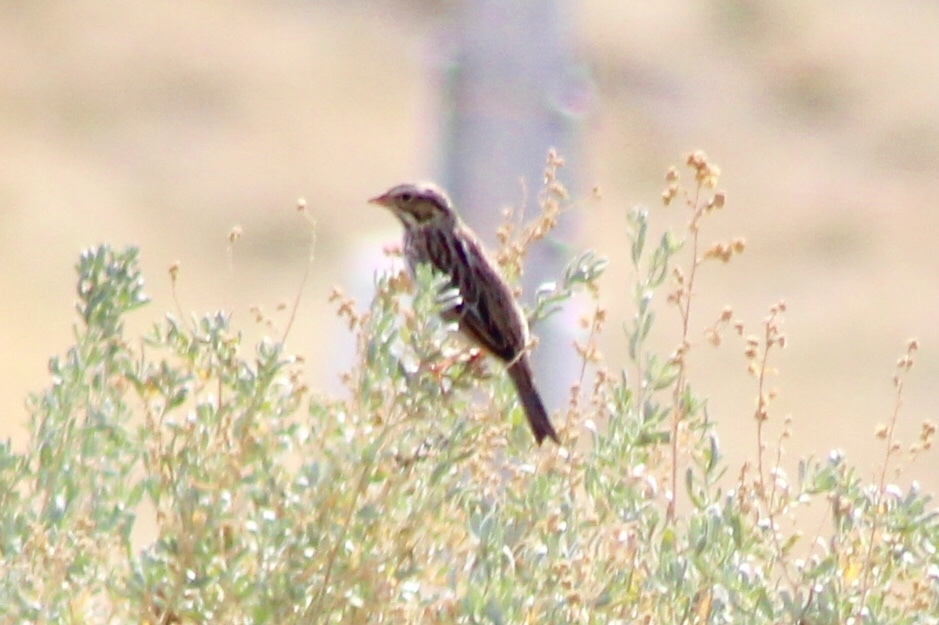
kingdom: Animalia
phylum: Chordata
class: Aves
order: Passeriformes
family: Passerellidae
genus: Passerculus
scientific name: Passerculus sandwichensis
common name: Savannah sparrow
